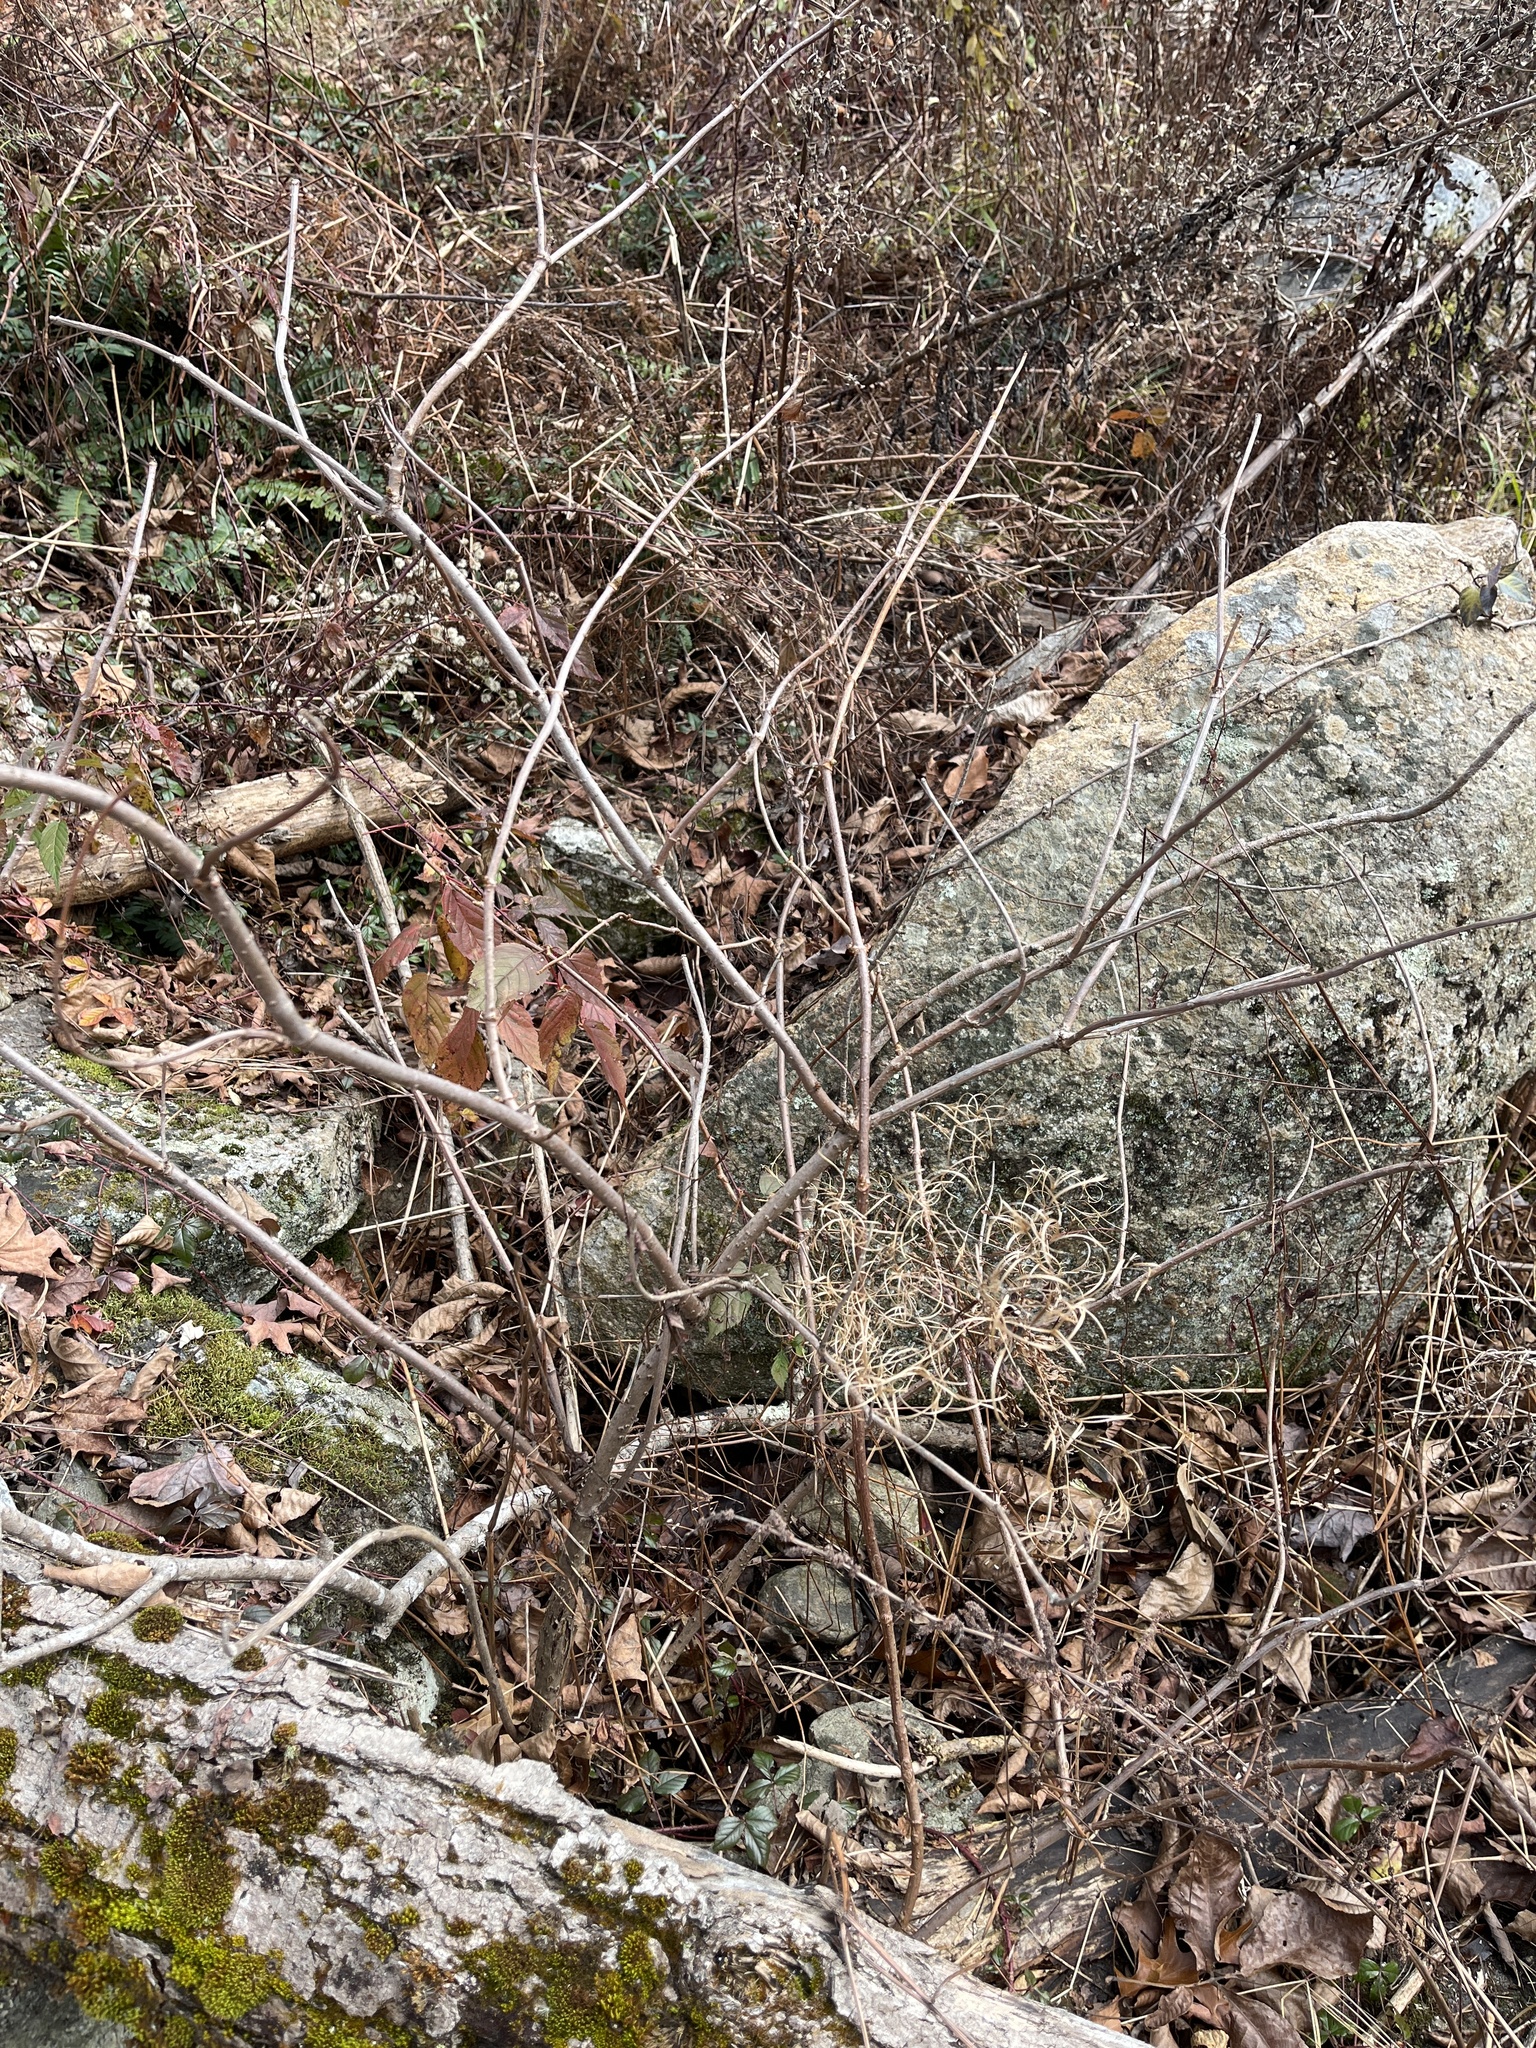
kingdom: Plantae
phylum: Tracheophyta
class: Magnoliopsida
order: Dipsacales
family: Viburnaceae
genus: Sambucus
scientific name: Sambucus canadensis
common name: American elder
